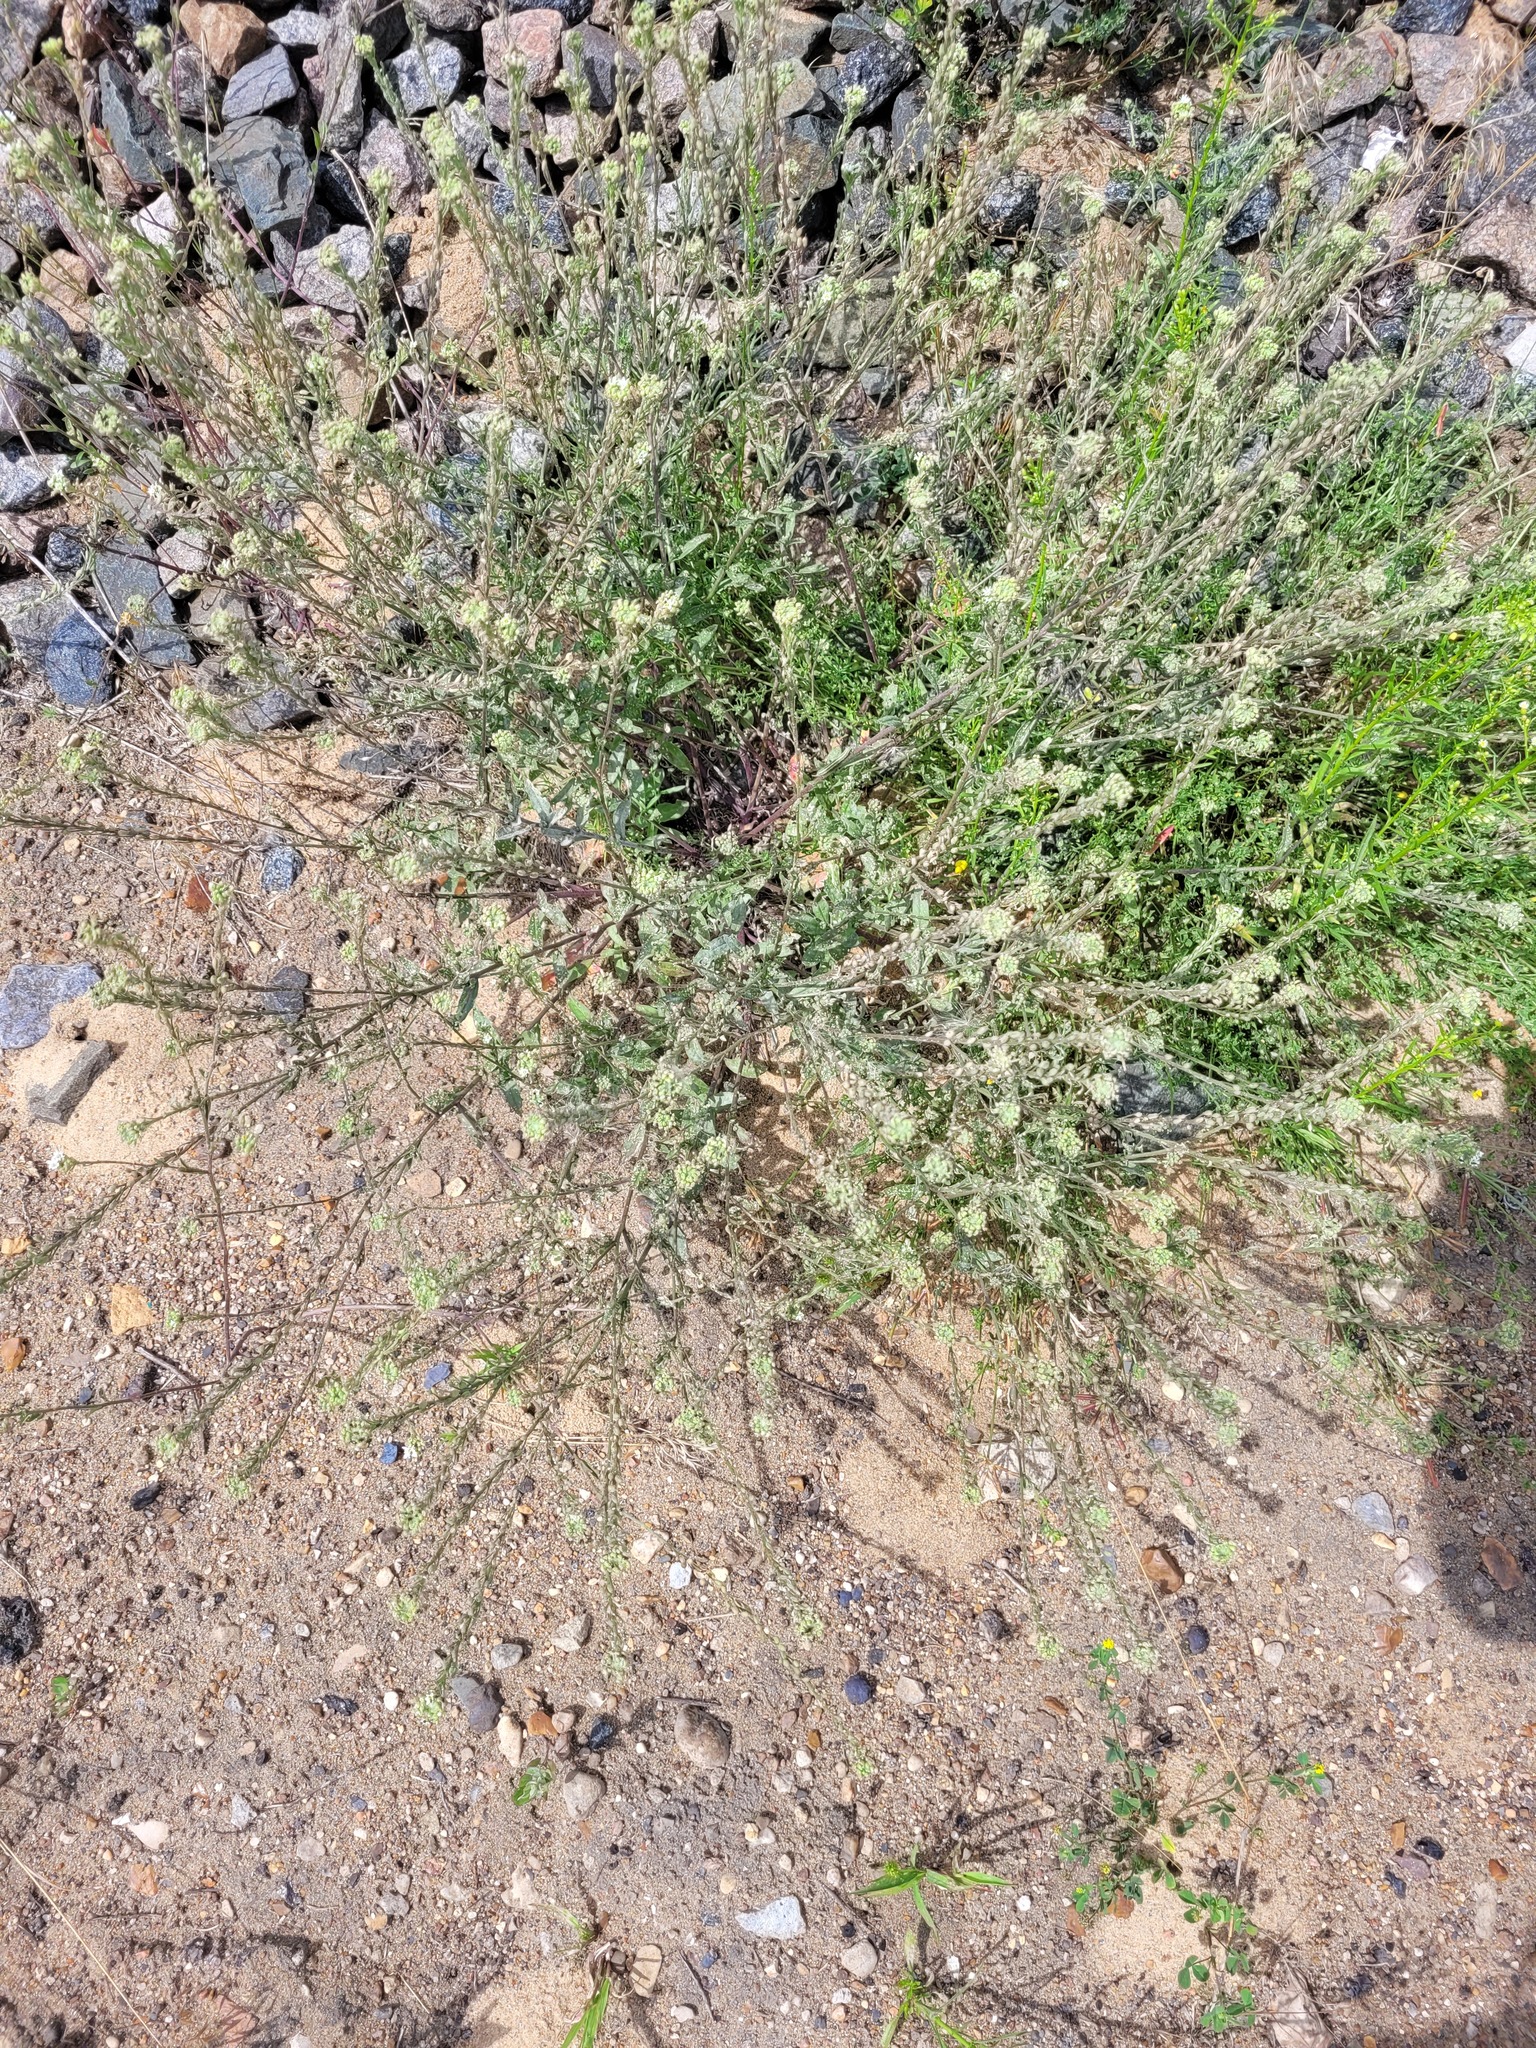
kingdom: Plantae
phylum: Tracheophyta
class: Magnoliopsida
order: Brassicales
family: Brassicaceae
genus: Berteroa
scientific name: Berteroa incana
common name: Hoary alison
